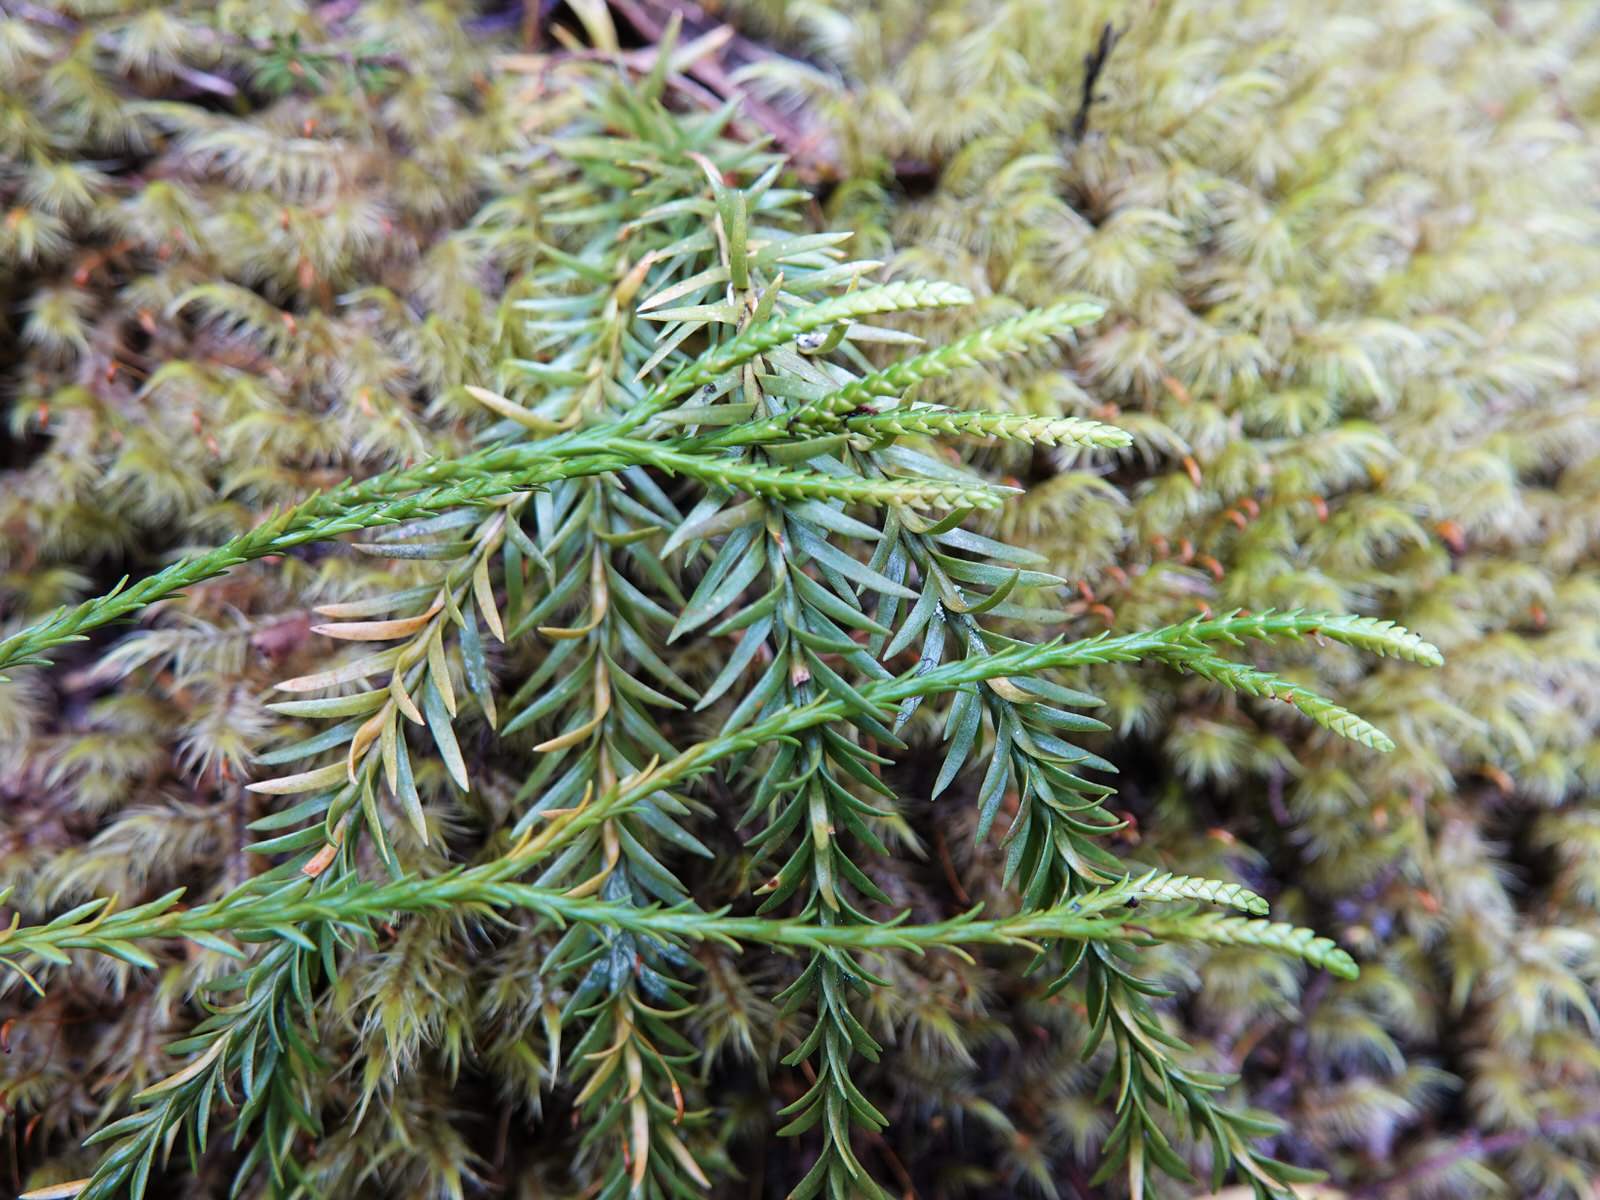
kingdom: Plantae
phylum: Tracheophyta
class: Lycopodiopsida
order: Lycopodiales
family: Lycopodiaceae
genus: Phlegmariurus
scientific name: Phlegmariurus billardierei
